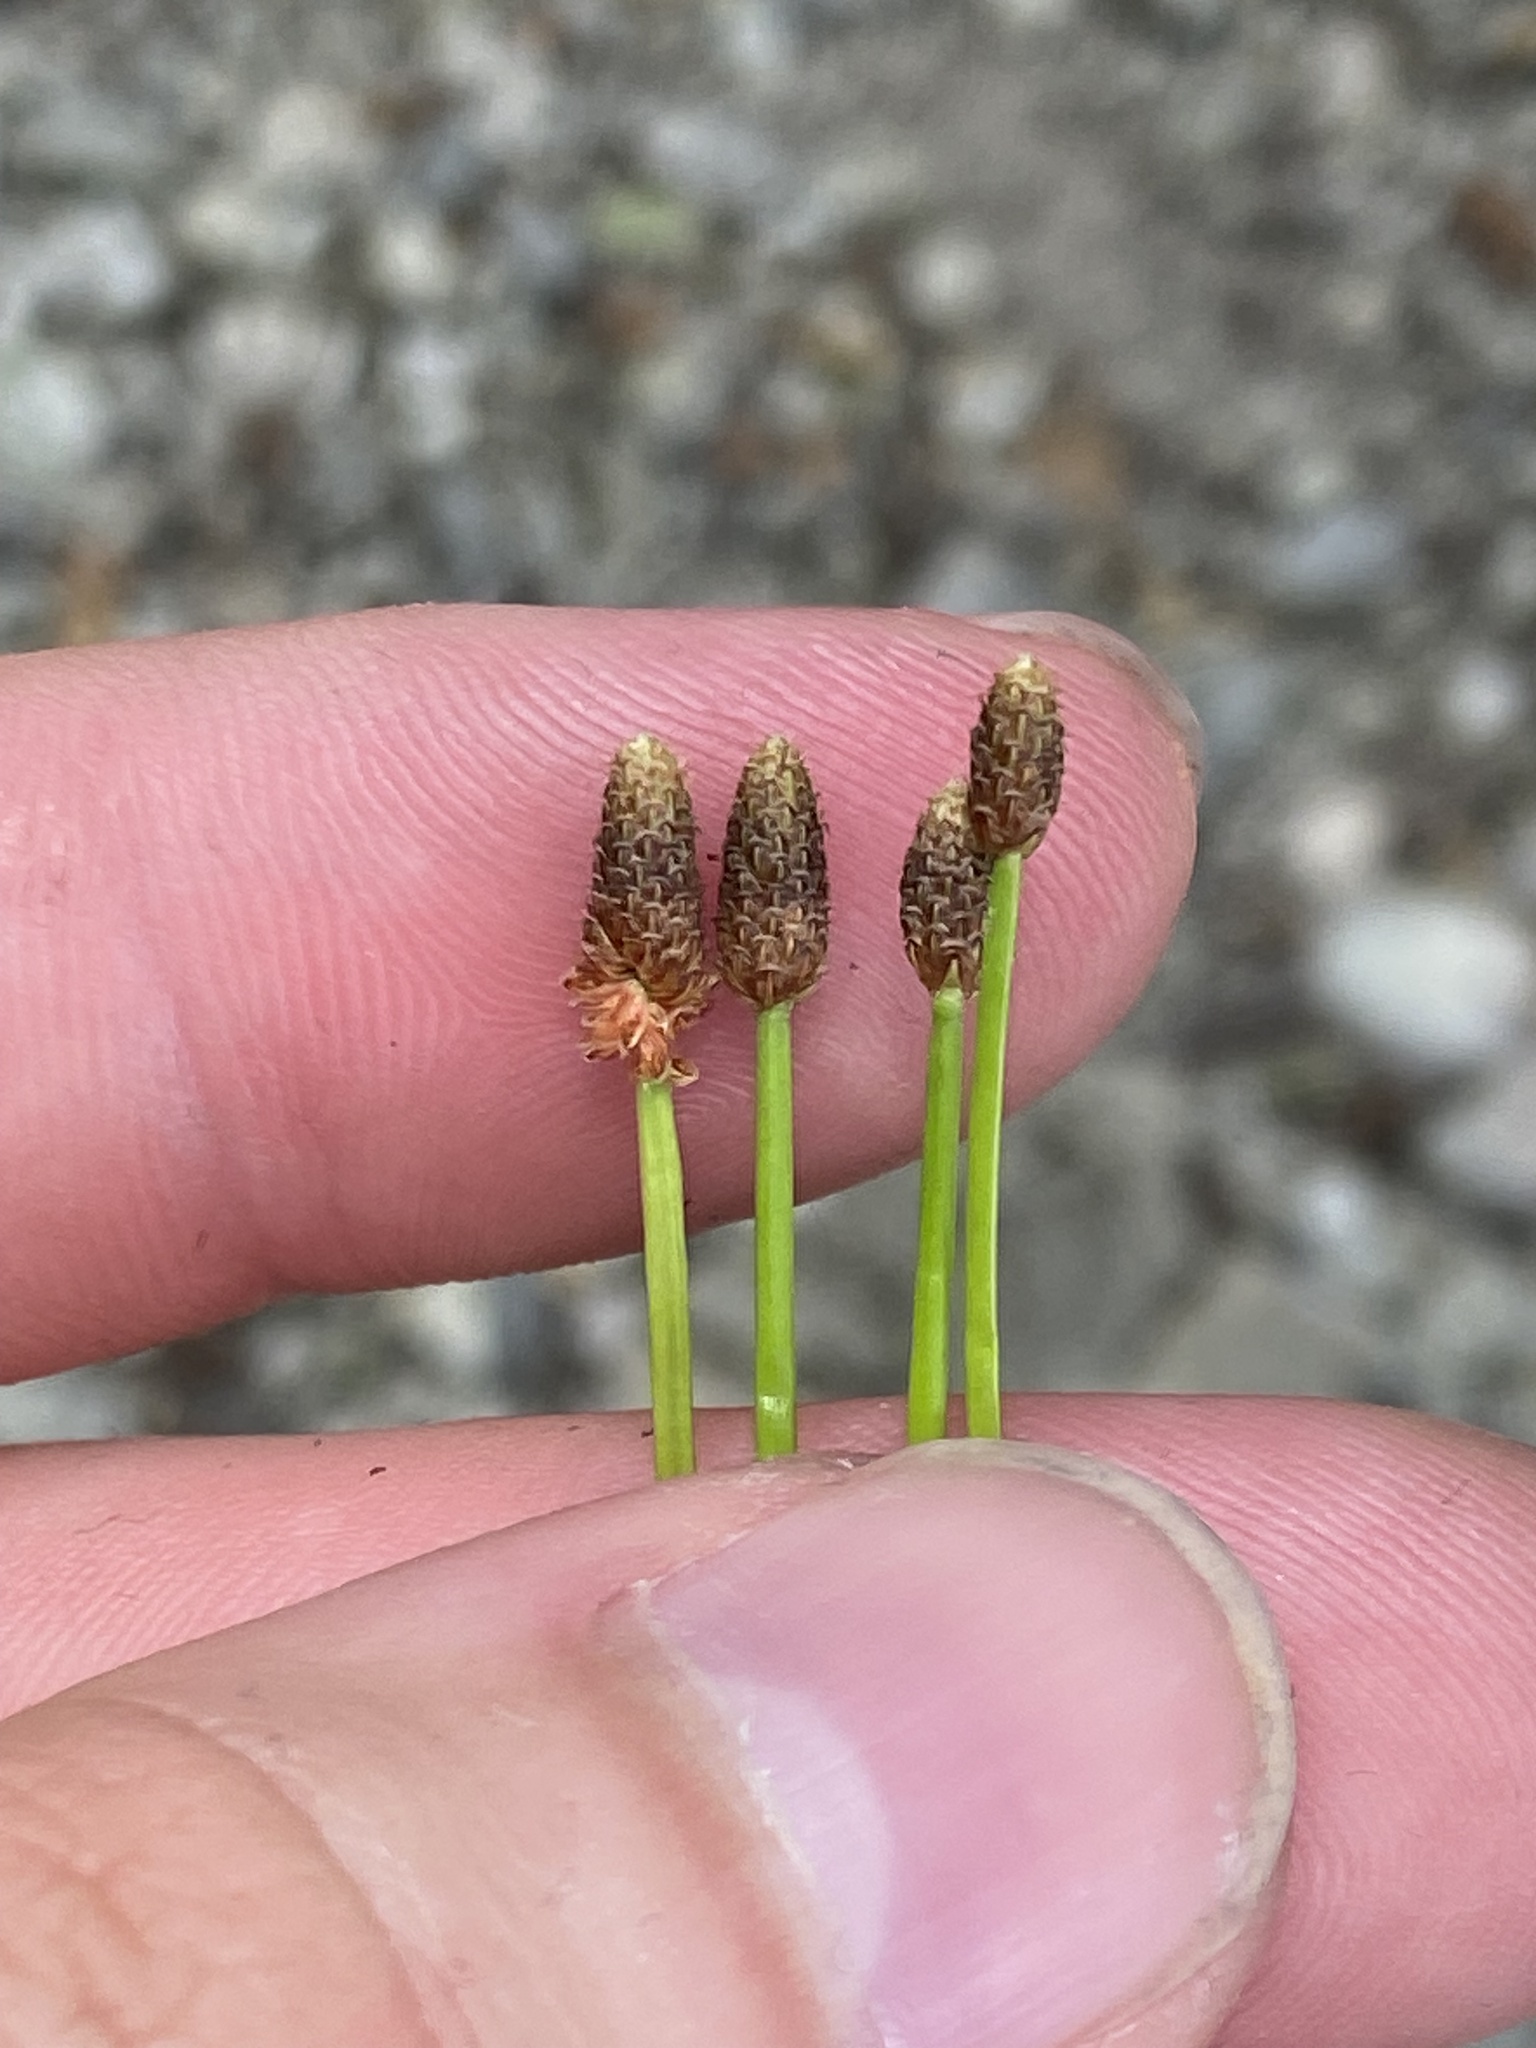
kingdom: Plantae
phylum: Tracheophyta
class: Liliopsida
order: Poales
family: Cyperaceae
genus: Eleocharis
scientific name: Eleocharis obtusa
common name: Blunt spikerush
